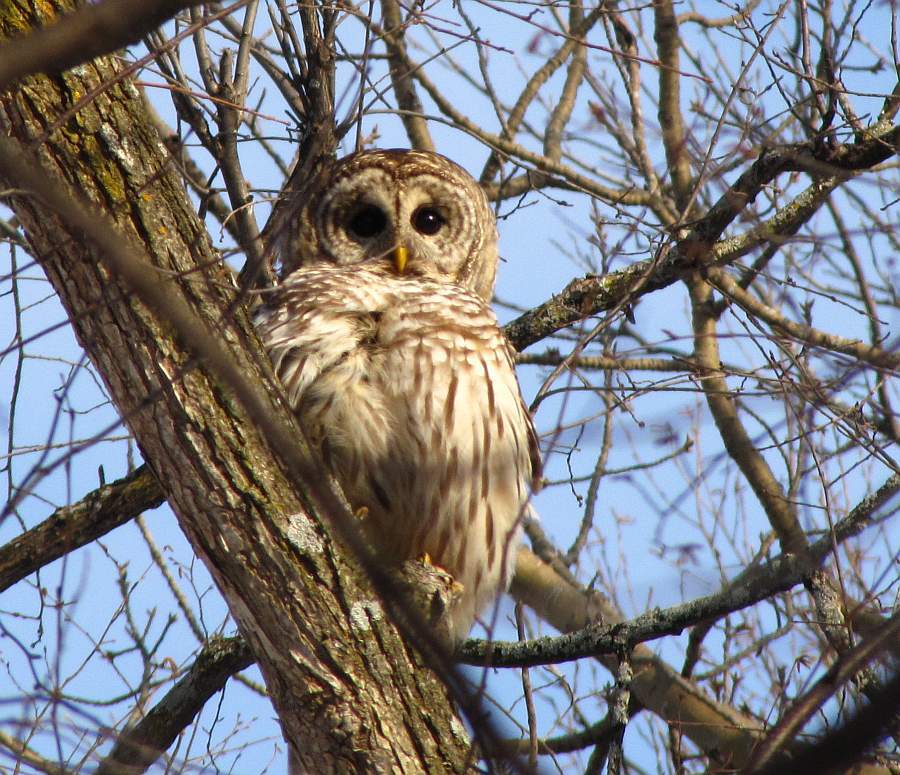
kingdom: Animalia
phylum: Chordata
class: Aves
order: Strigiformes
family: Strigidae
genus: Strix
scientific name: Strix varia
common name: Barred owl
